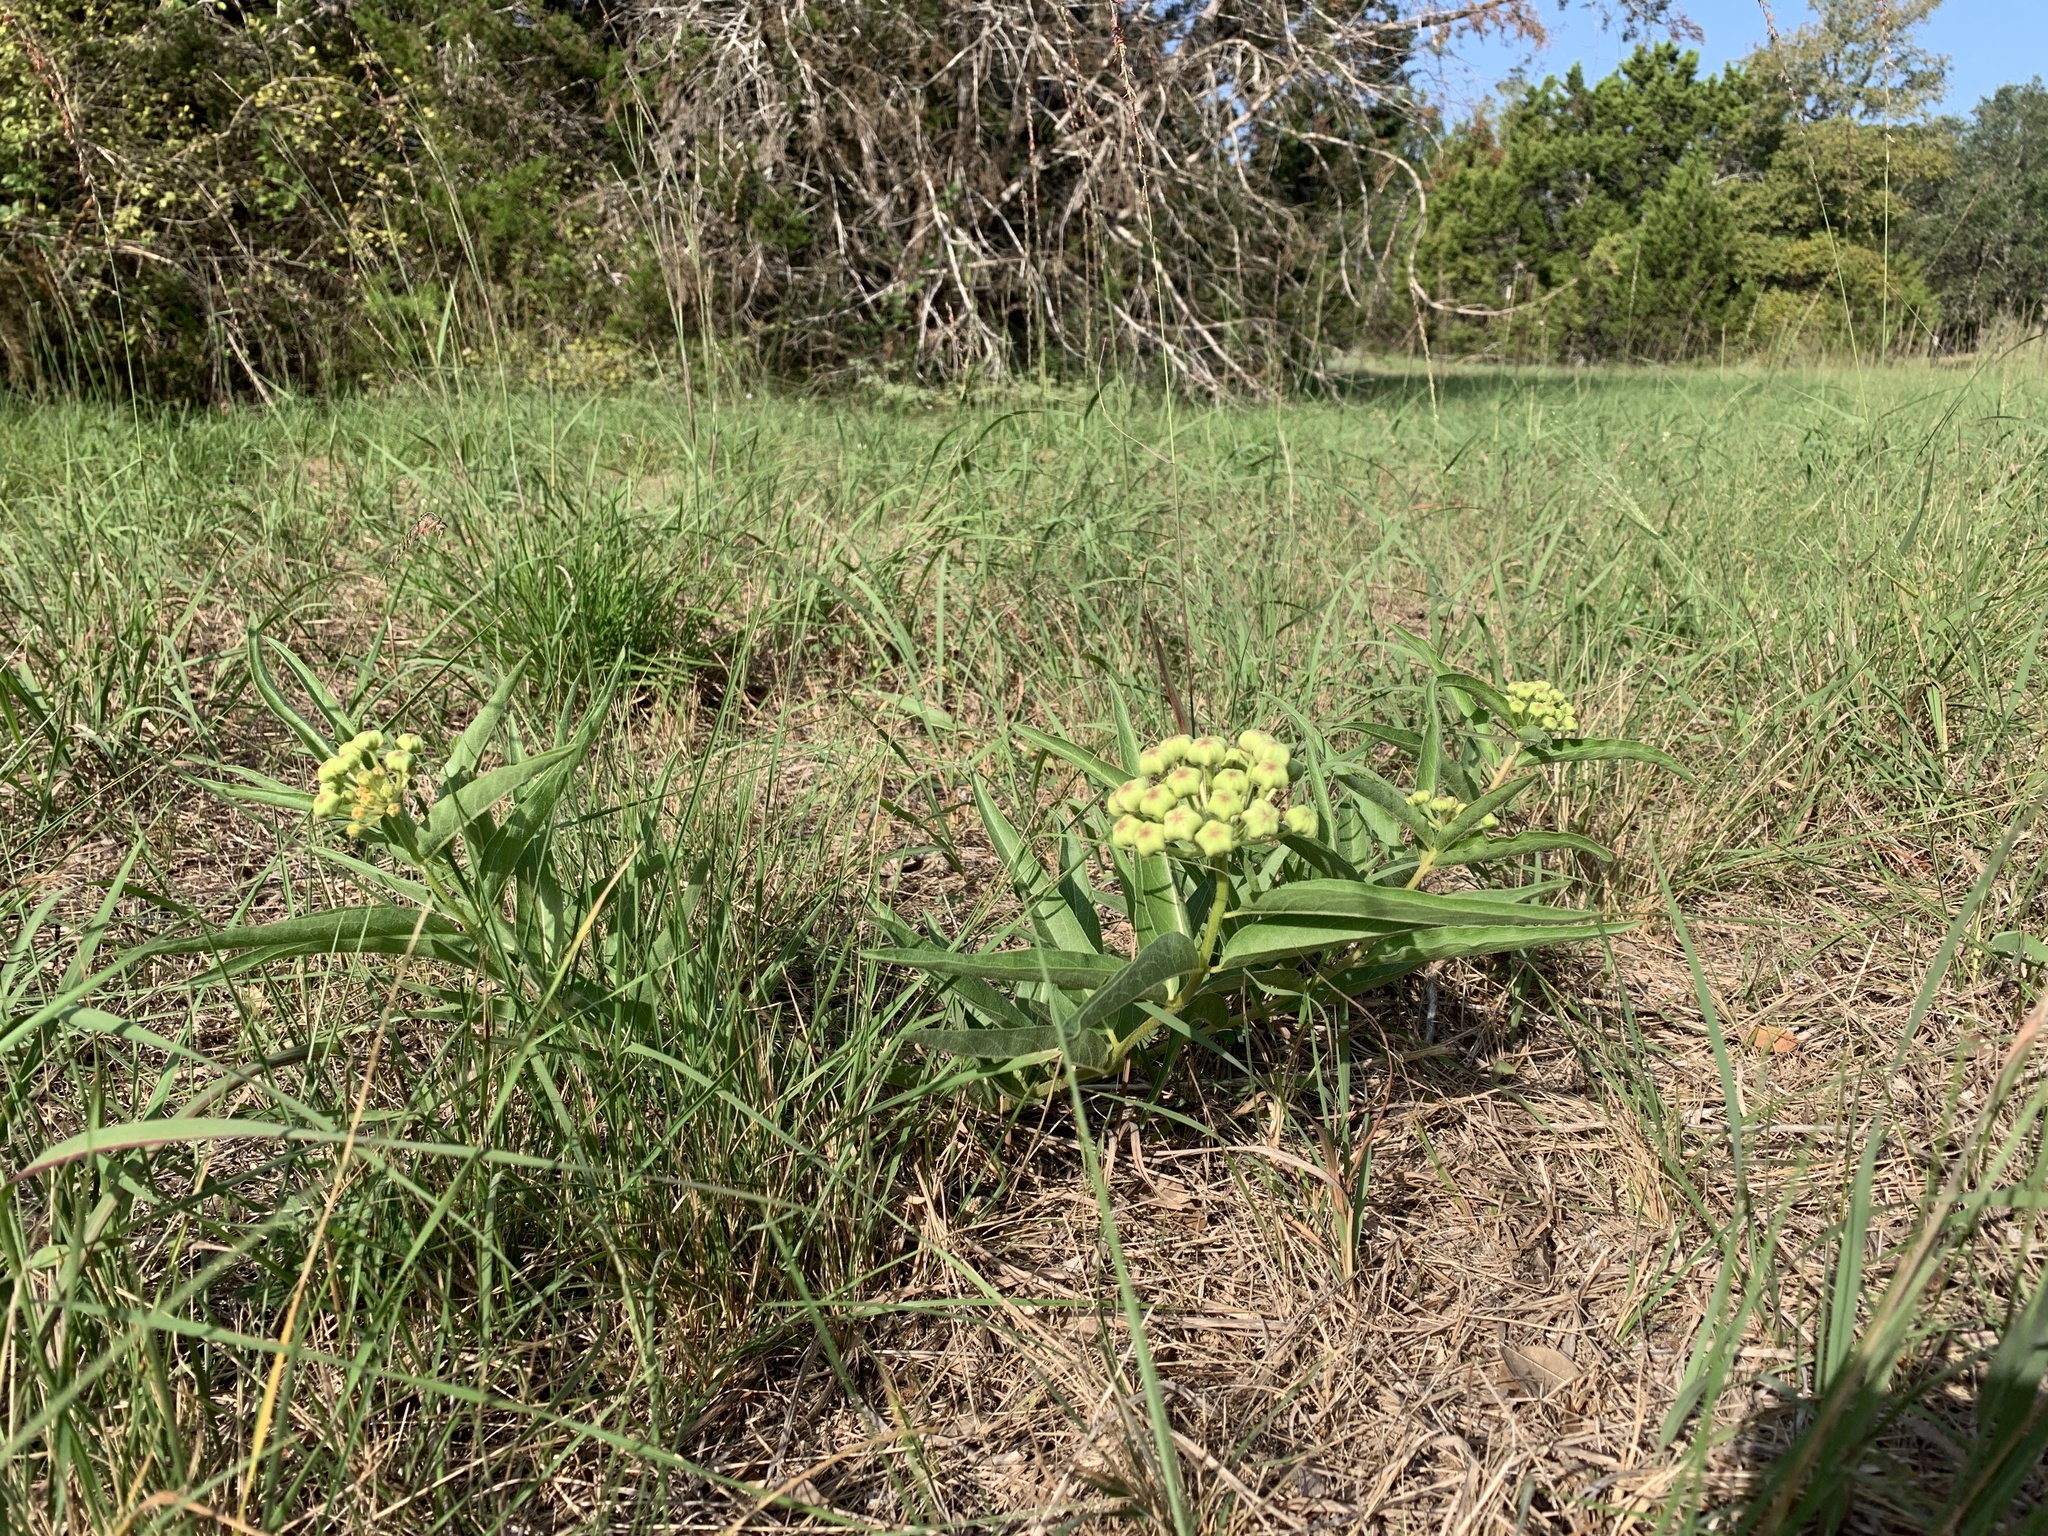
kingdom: Plantae
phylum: Tracheophyta
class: Magnoliopsida
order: Gentianales
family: Apocynaceae
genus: Asclepias
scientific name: Asclepias asperula
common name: Antelope horns
